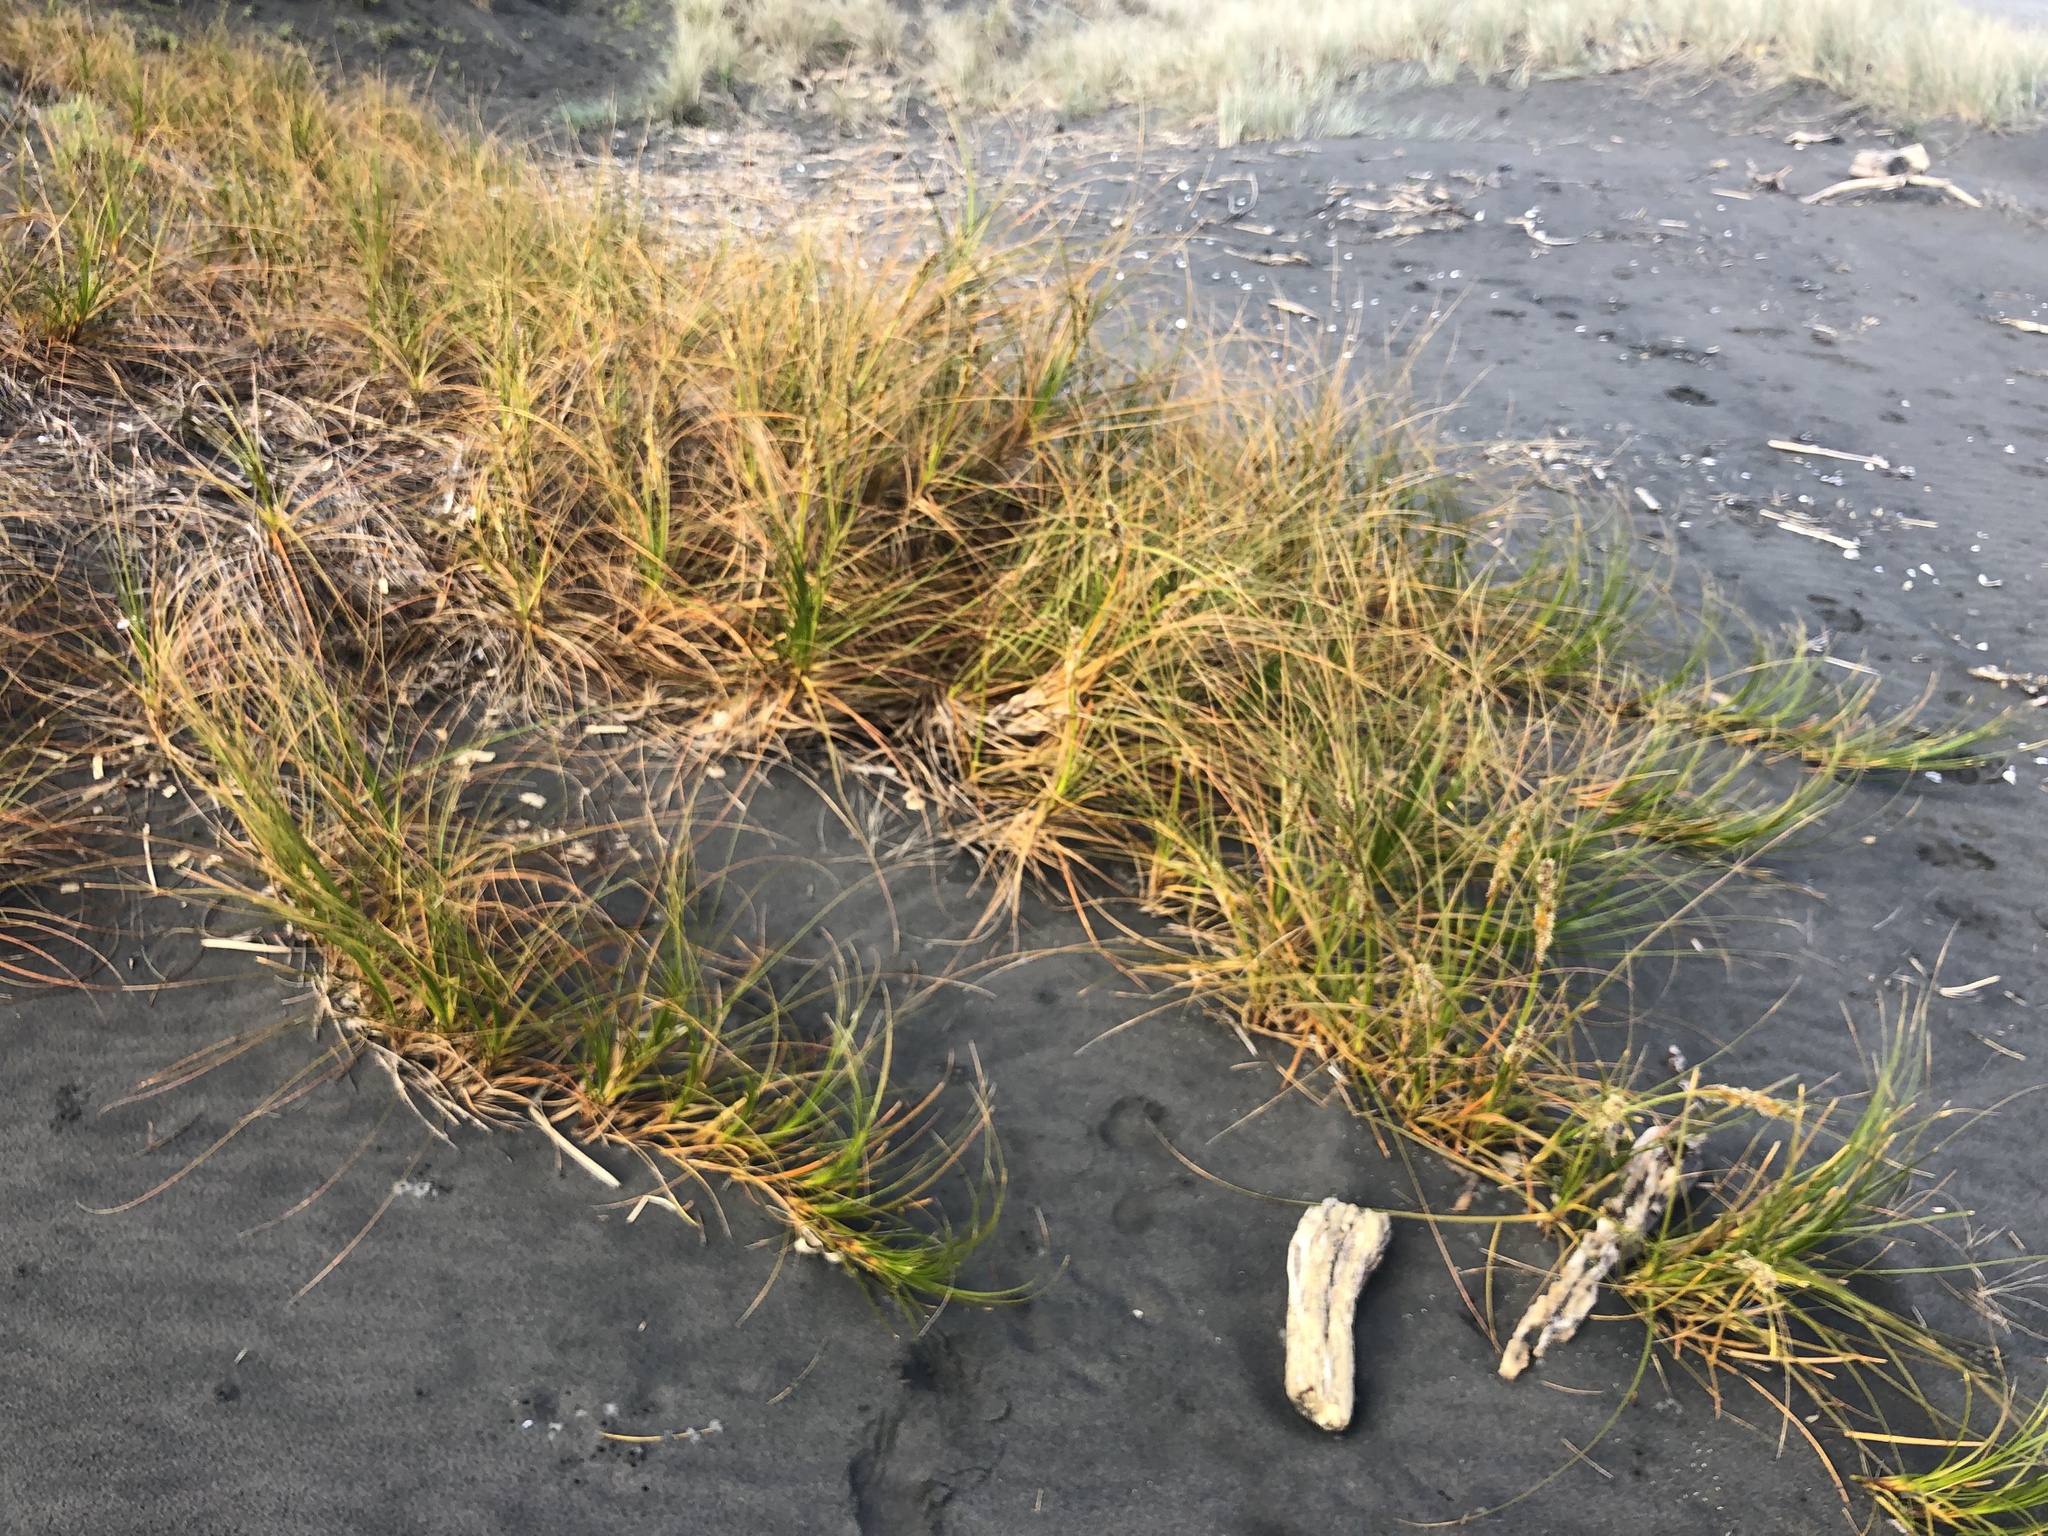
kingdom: Plantae
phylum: Tracheophyta
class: Liliopsida
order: Poales
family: Cyperaceae
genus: Ficinia
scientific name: Ficinia spiralis
